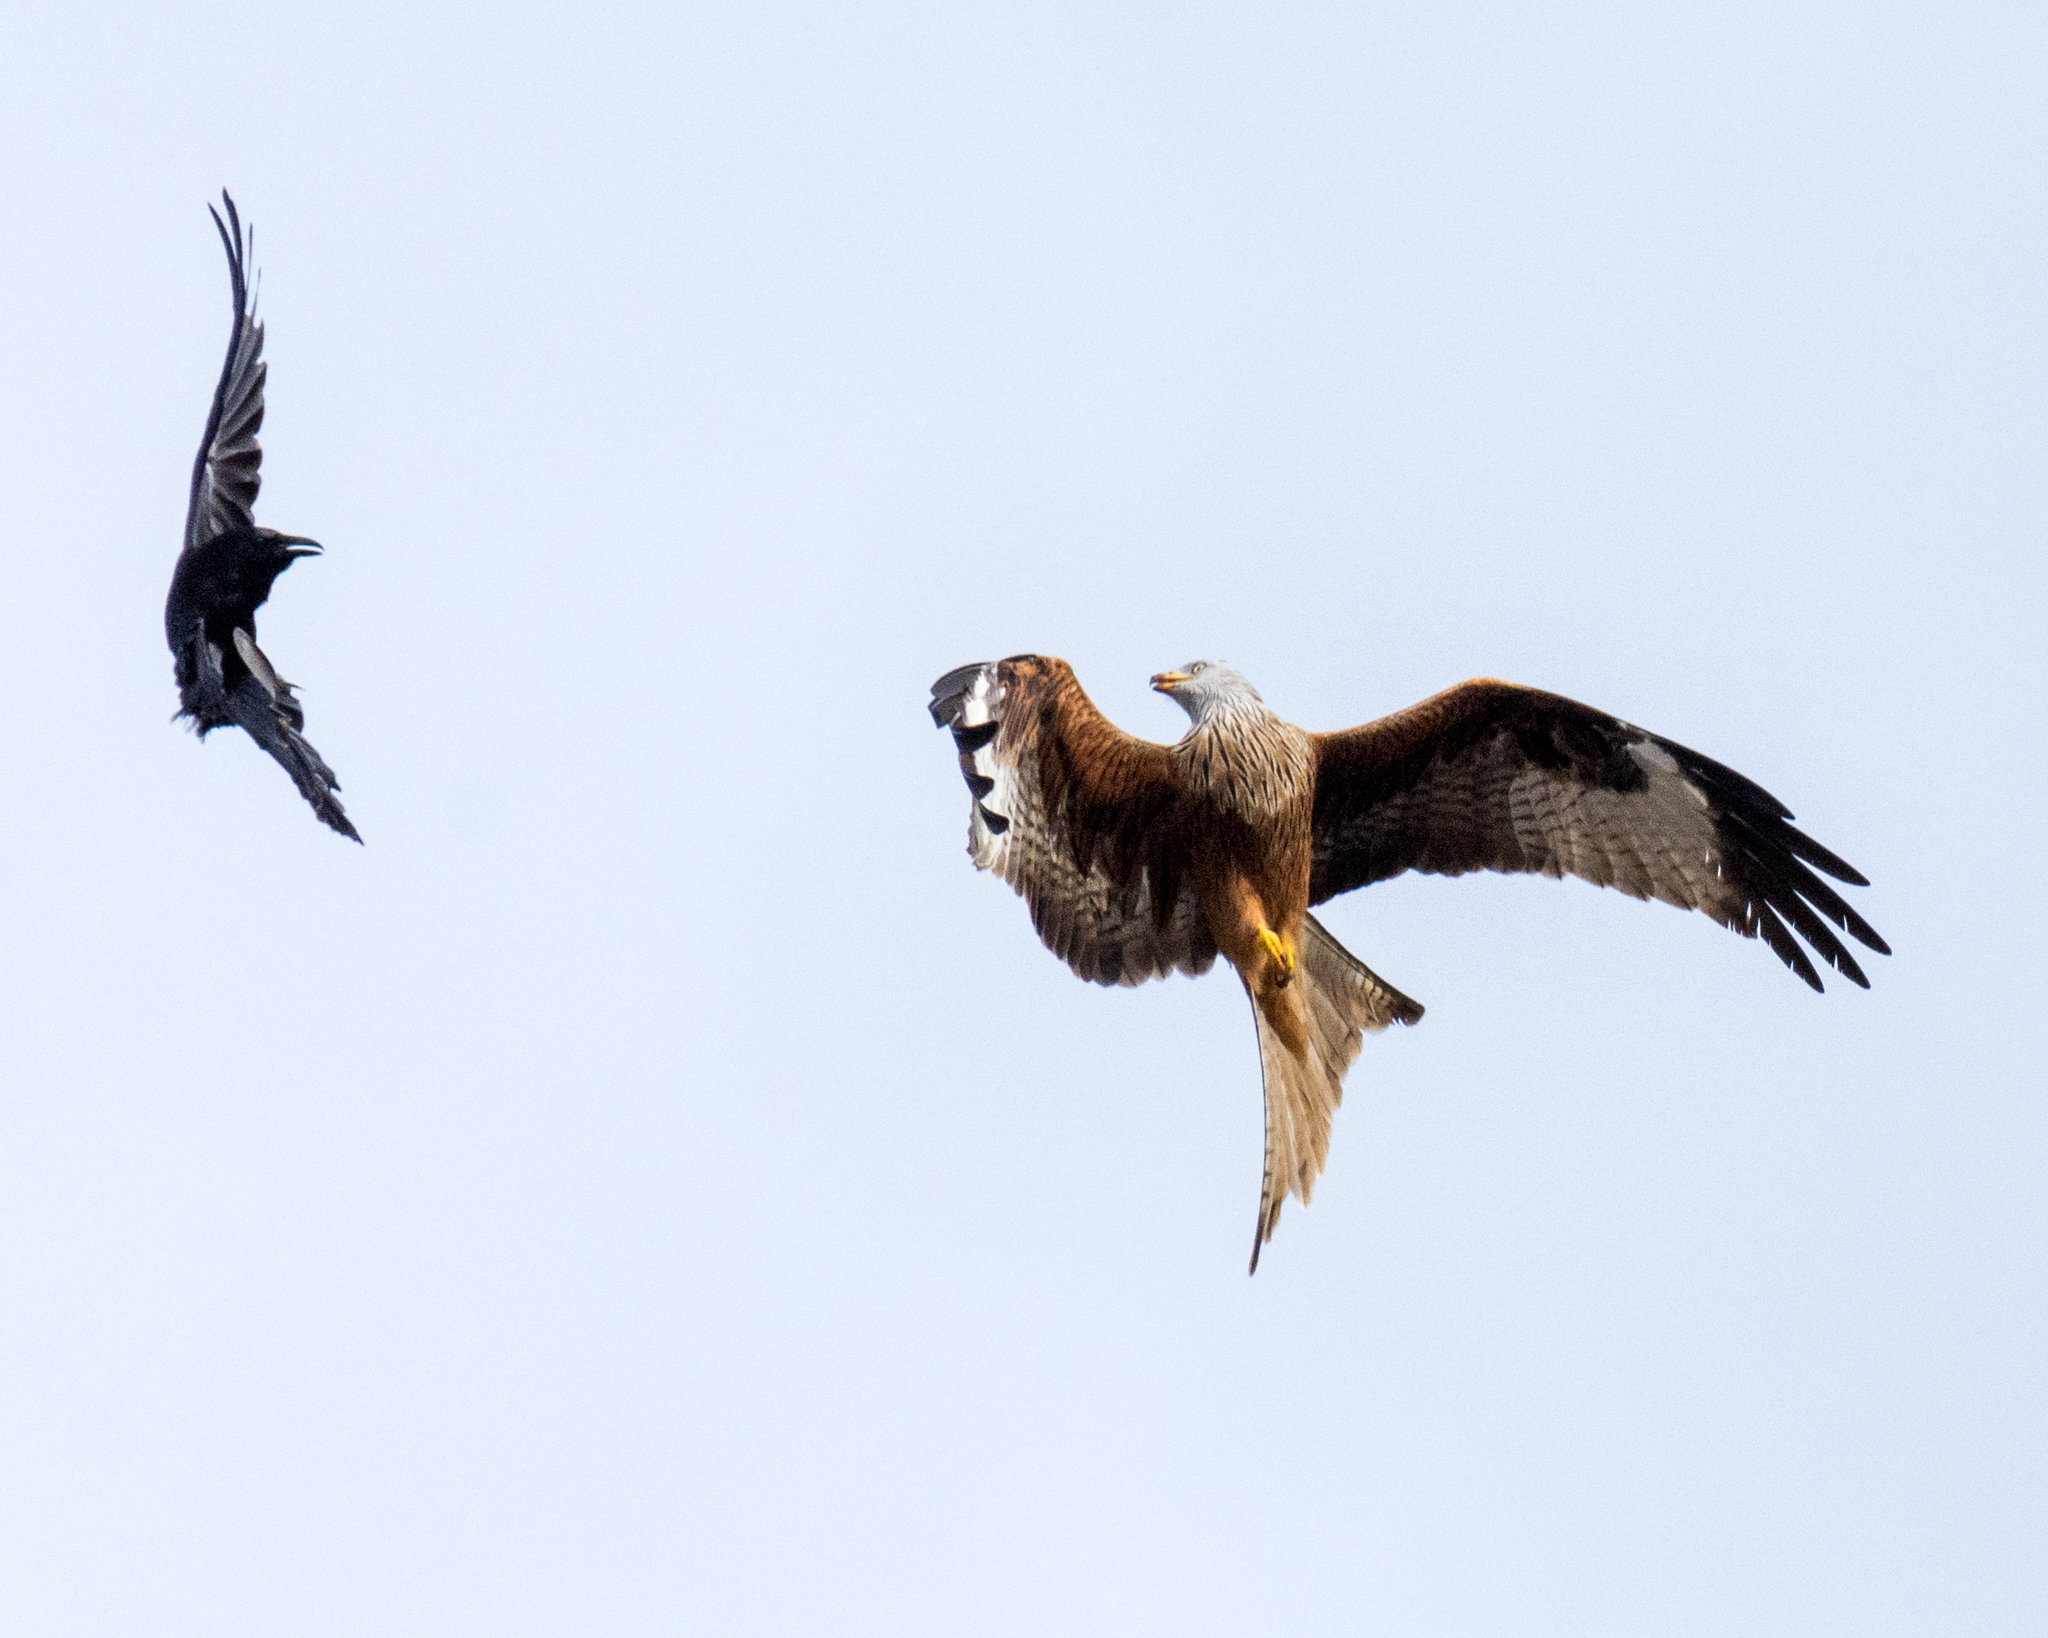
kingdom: Animalia
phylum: Chordata
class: Aves
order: Accipitriformes
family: Accipitridae
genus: Milvus
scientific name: Milvus milvus
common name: Red kite
